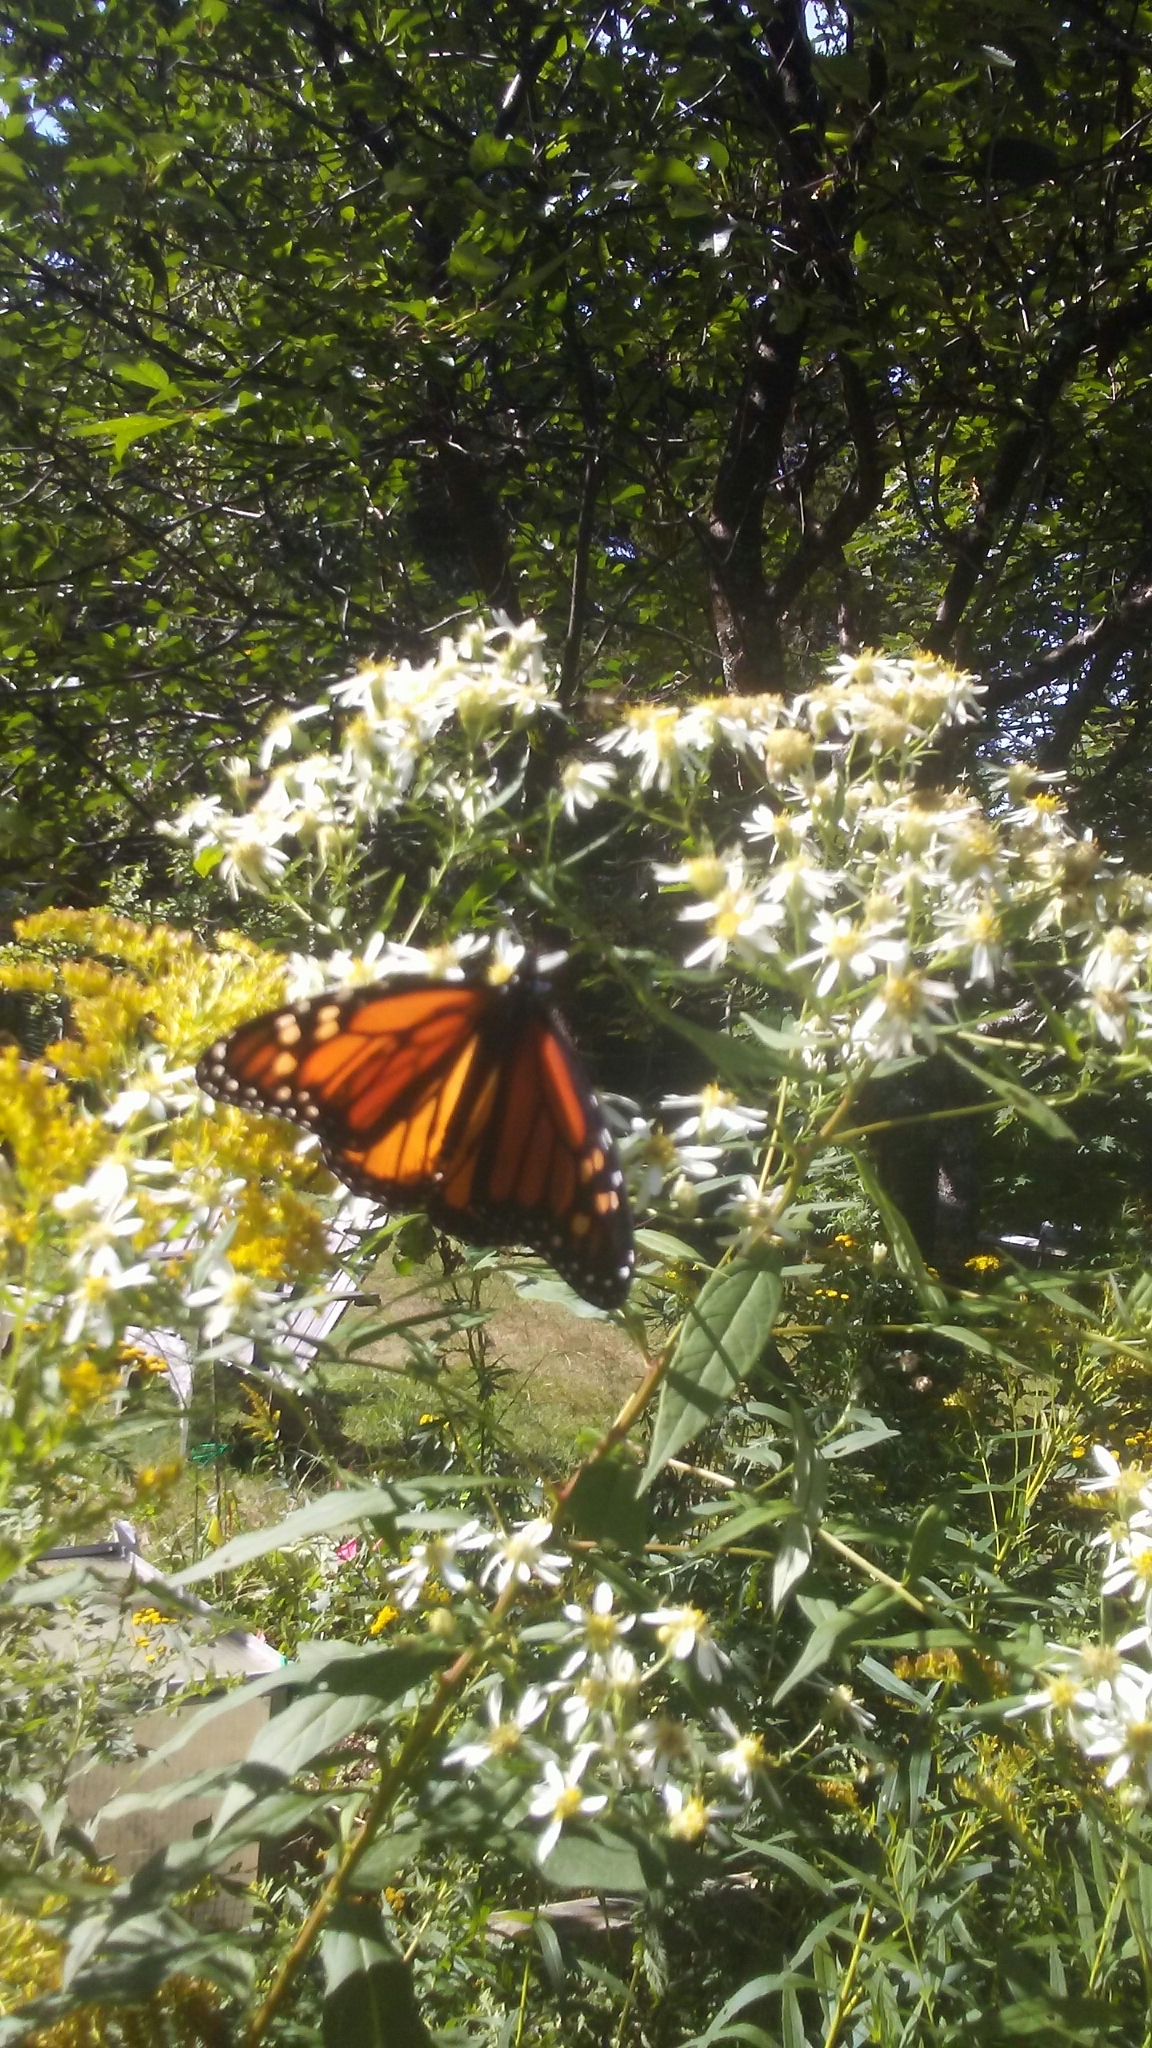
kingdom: Animalia
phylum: Arthropoda
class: Insecta
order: Lepidoptera
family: Nymphalidae
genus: Danaus
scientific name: Danaus plexippus
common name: Monarch
